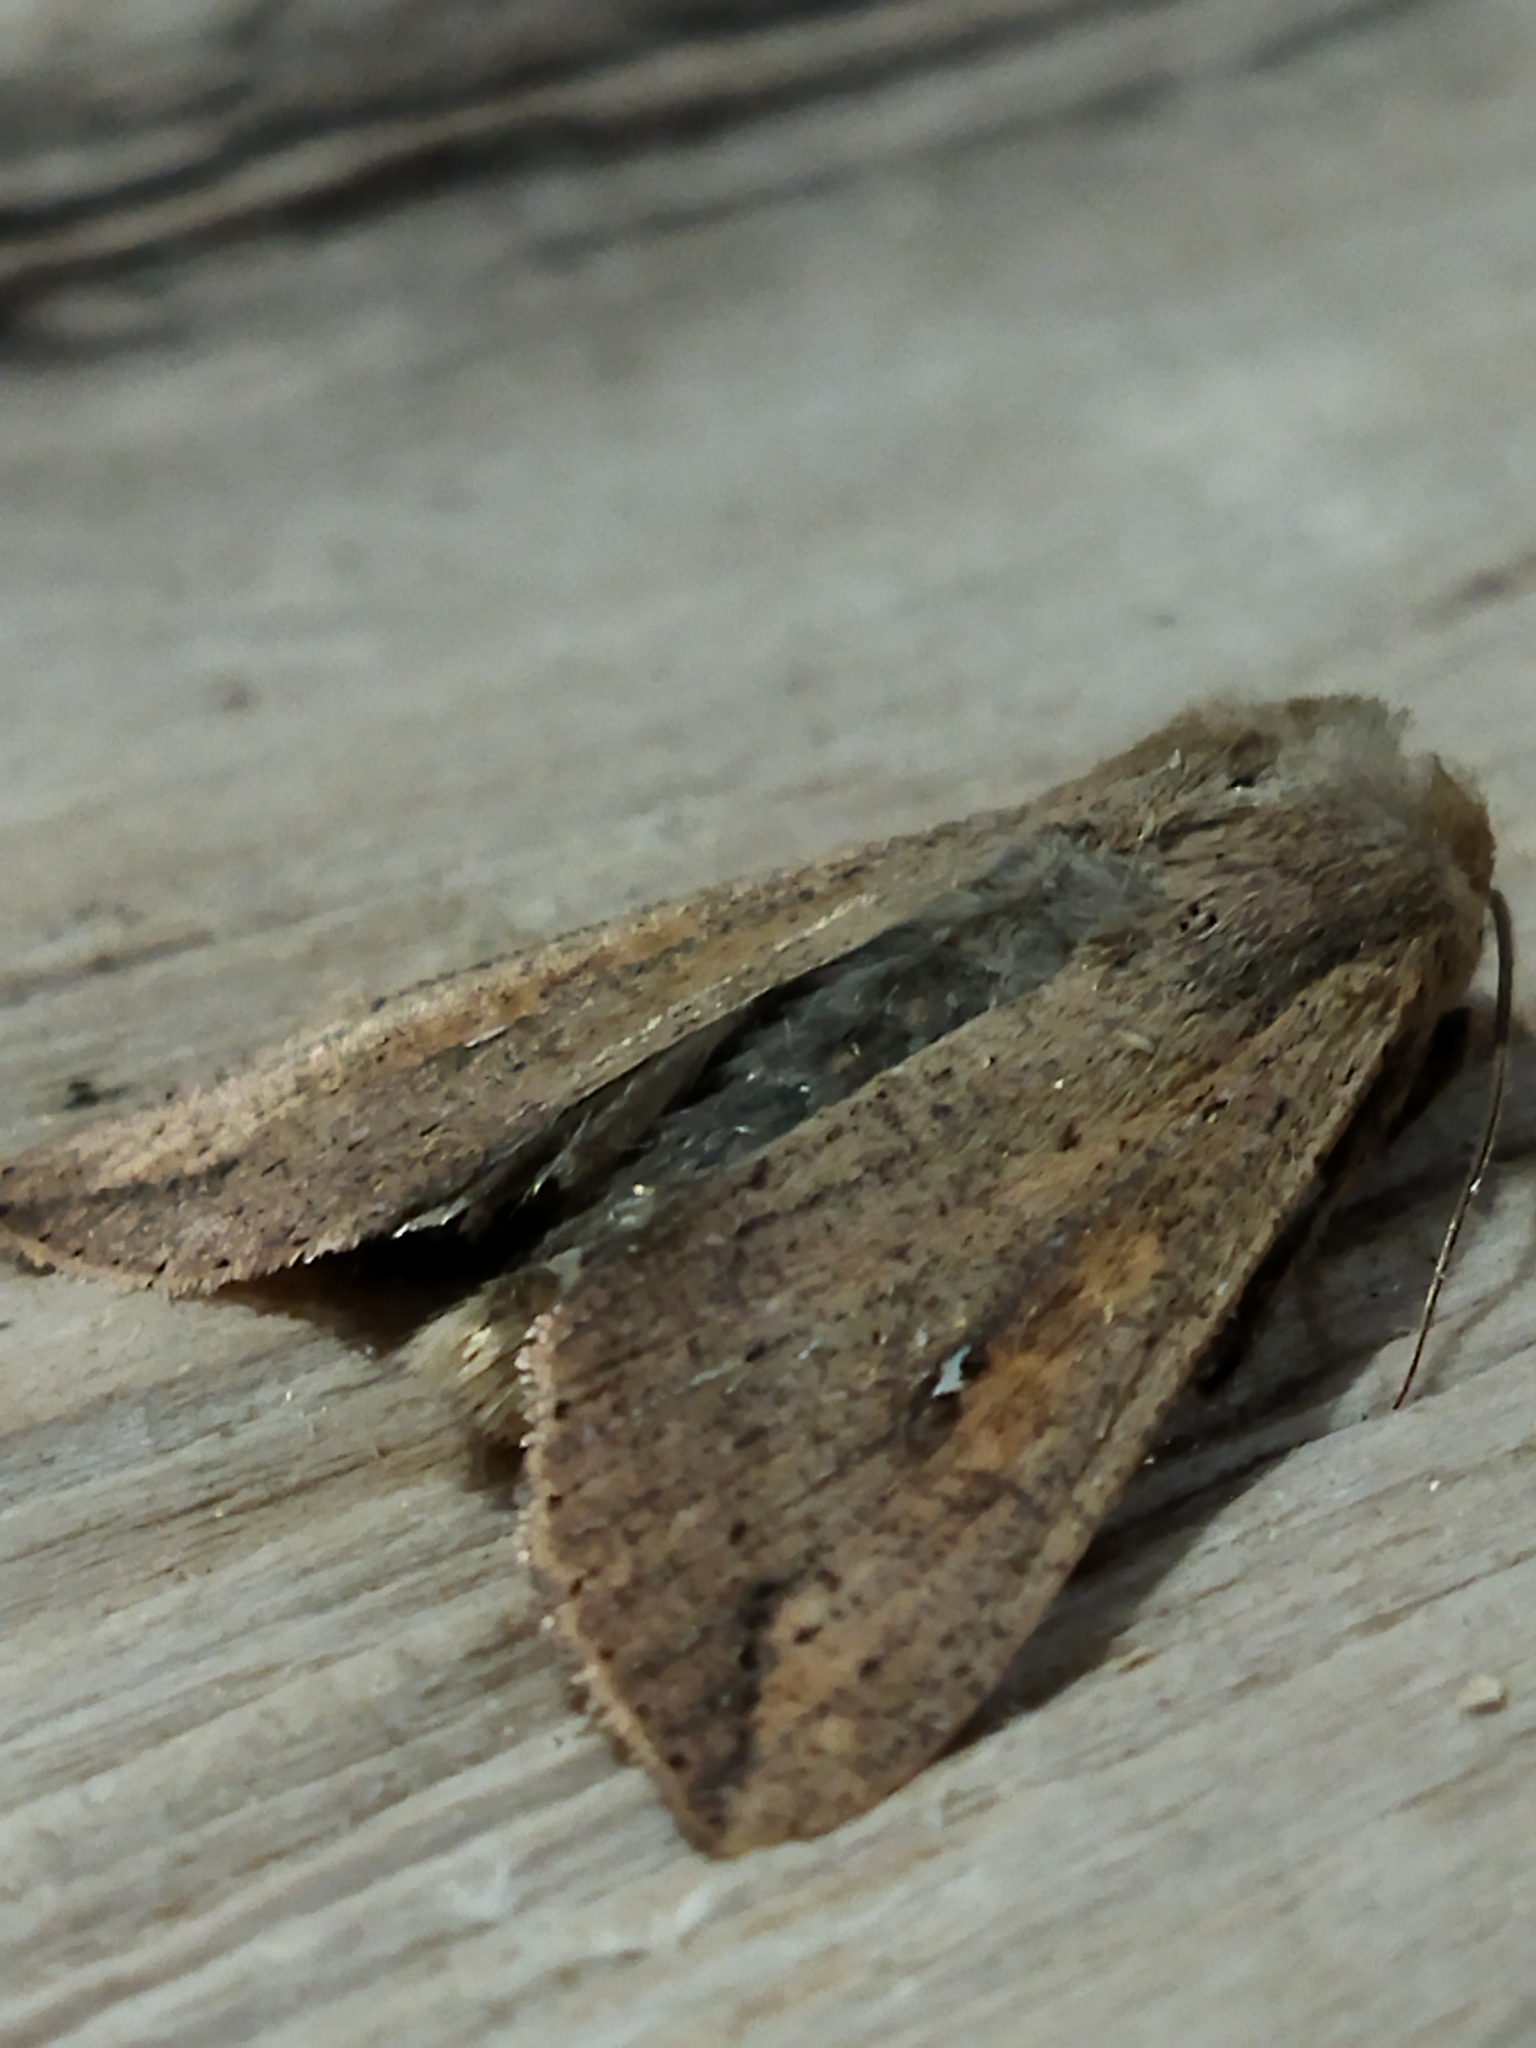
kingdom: Animalia
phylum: Arthropoda
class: Insecta
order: Lepidoptera
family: Noctuidae
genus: Mythimna
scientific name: Mythimna unipuncta
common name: White-speck
